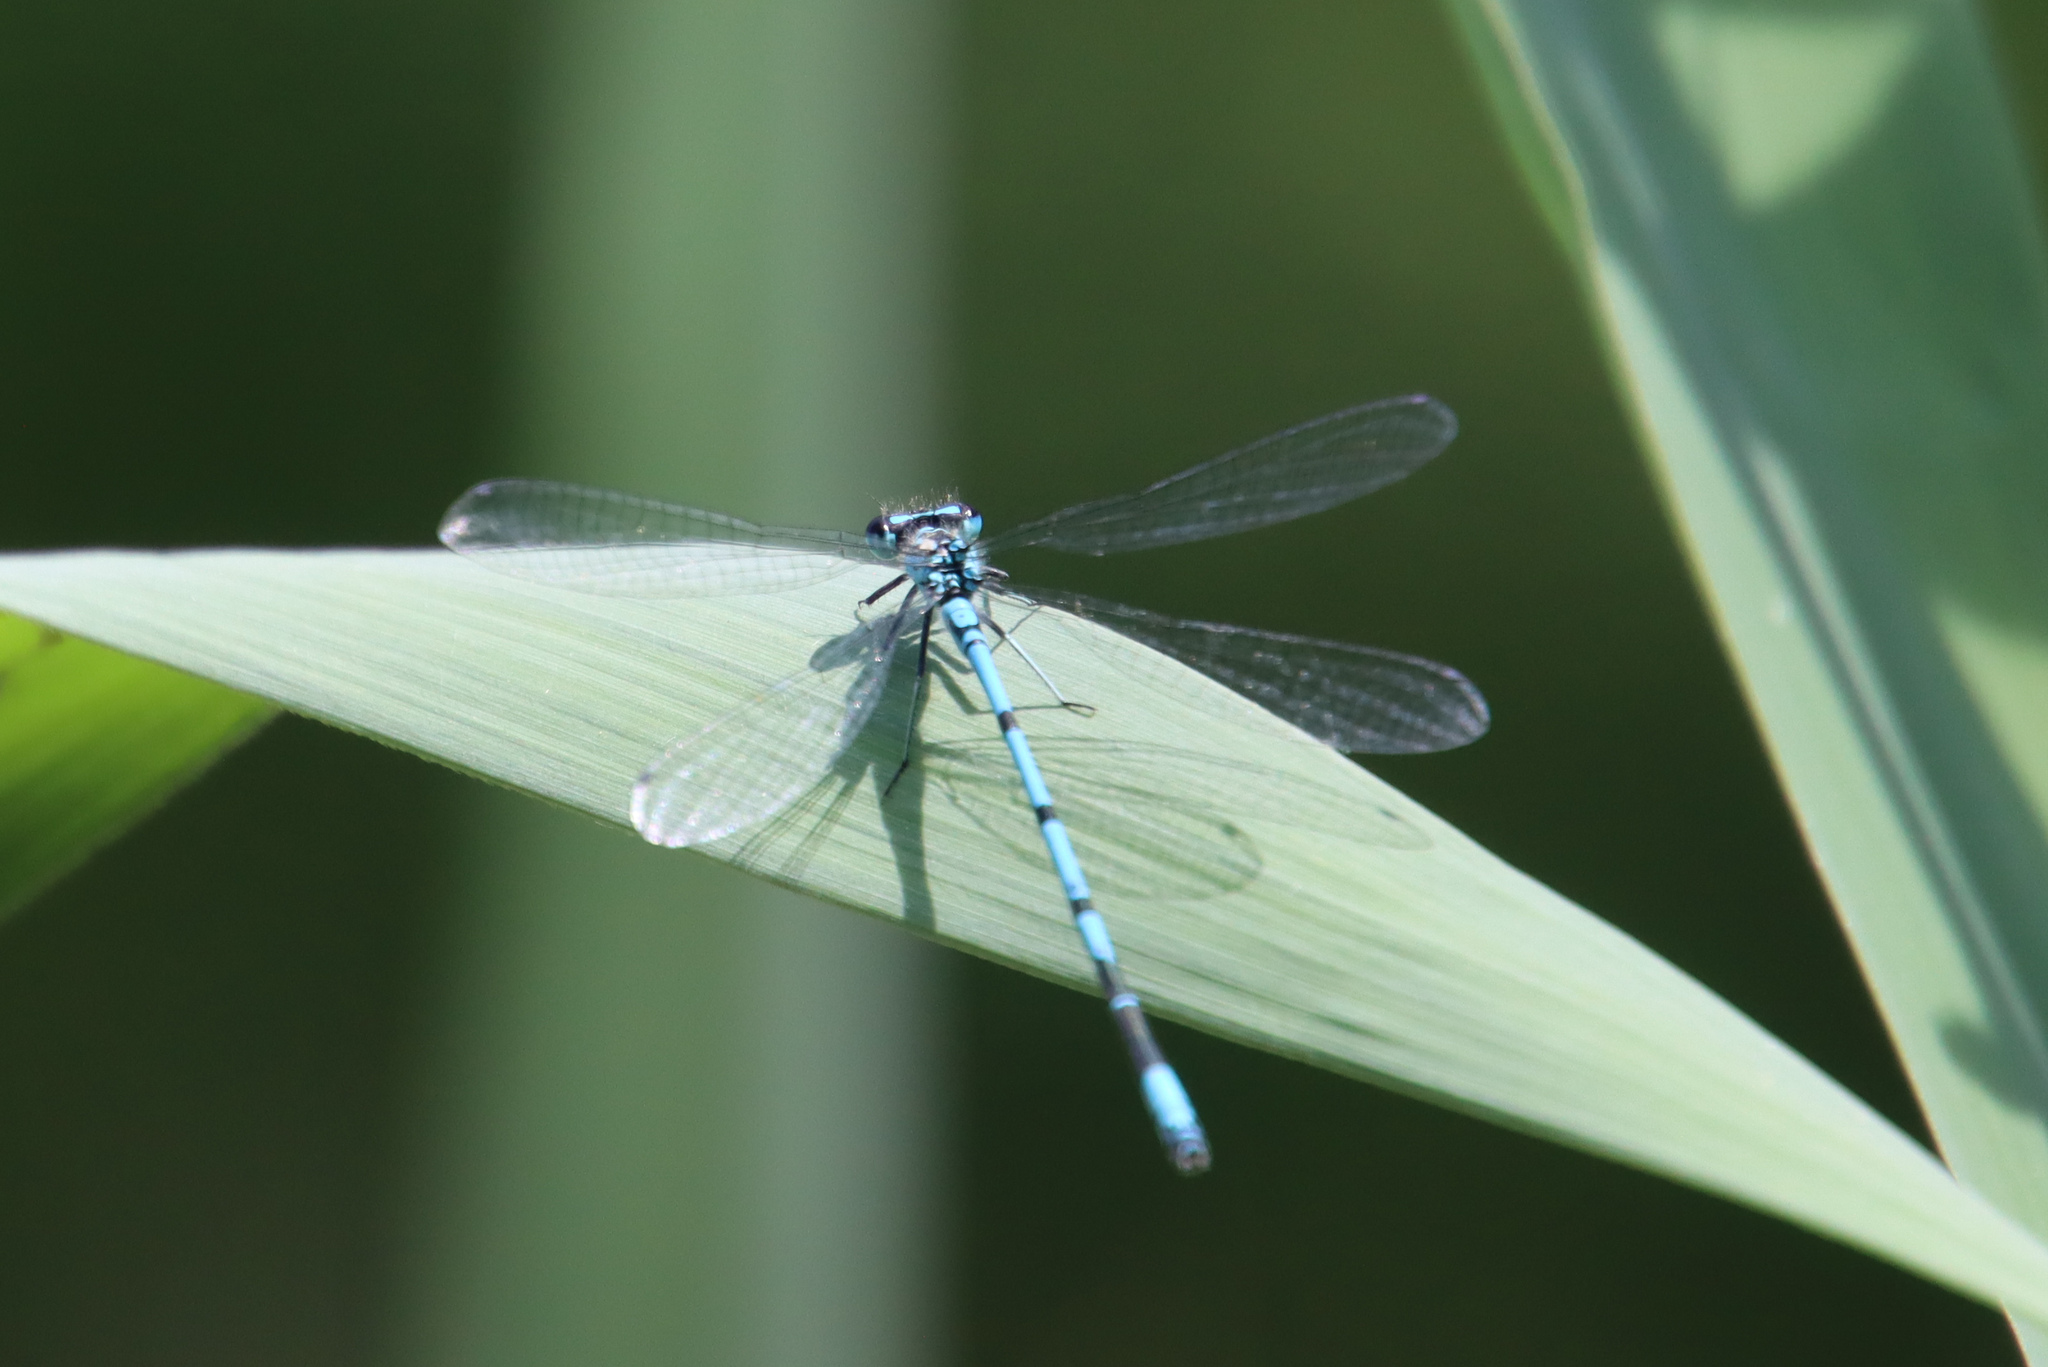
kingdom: Animalia
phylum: Arthropoda
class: Insecta
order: Odonata
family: Coenagrionidae
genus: Coenagrion
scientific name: Coenagrion puella
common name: Azure damselfly
